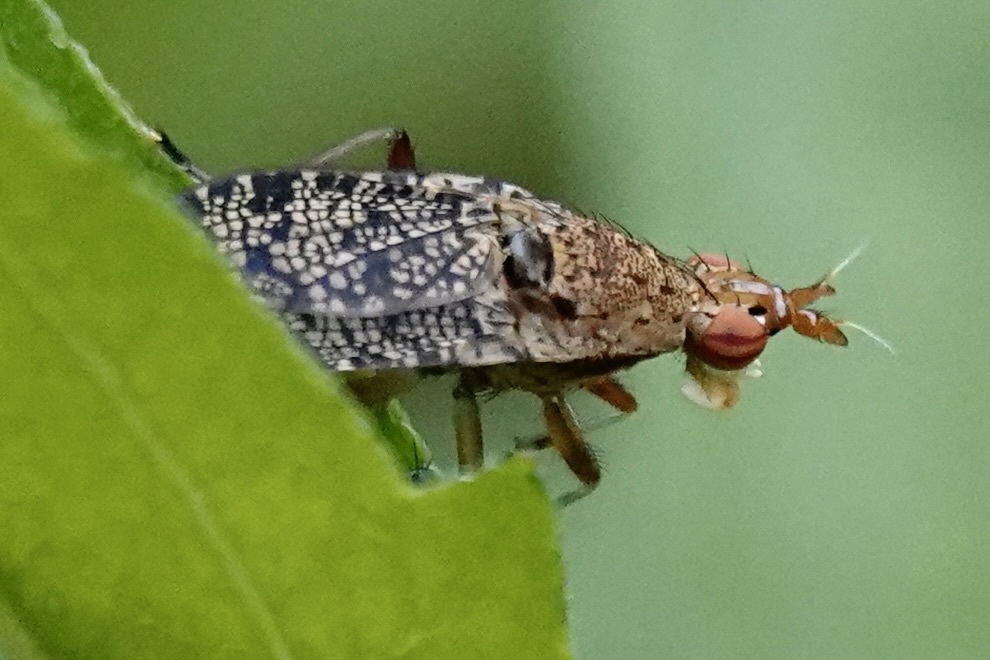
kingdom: Animalia
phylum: Arthropoda
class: Insecta
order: Diptera
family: Sciomyzidae
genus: Euthycera
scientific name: Euthycera flavescens
